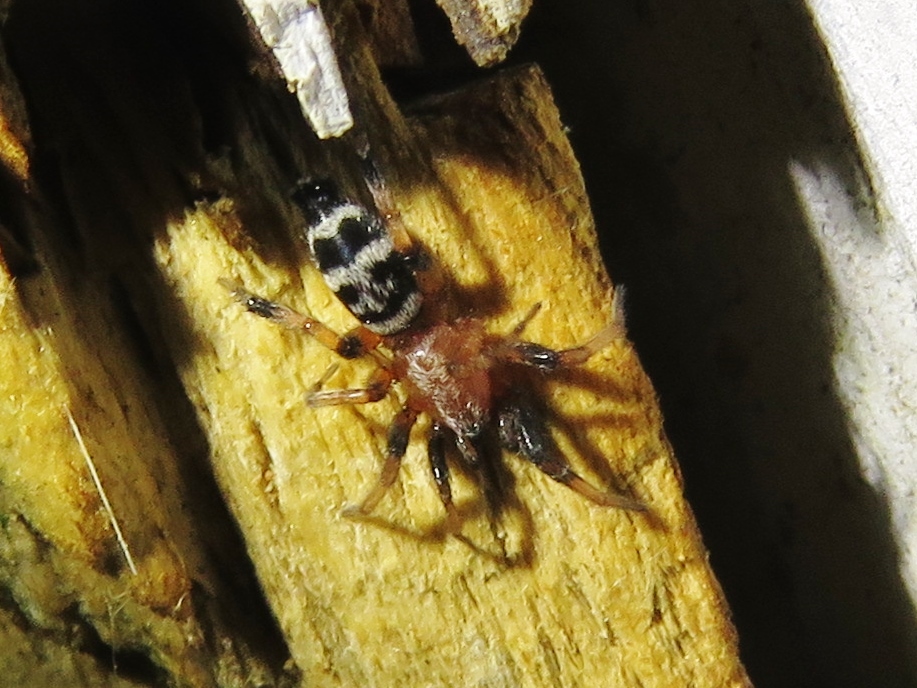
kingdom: Animalia
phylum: Arthropoda
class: Arachnida
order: Araneae
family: Gnaphosidae
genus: Sergiolus
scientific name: Sergiolus capulatus
